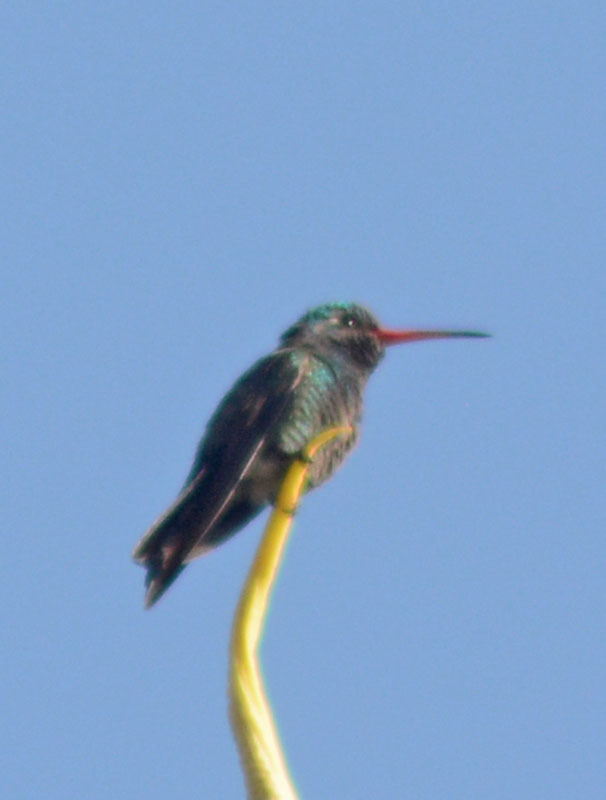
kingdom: Animalia
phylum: Chordata
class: Aves
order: Apodiformes
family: Trochilidae
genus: Cynanthus
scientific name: Cynanthus latirostris
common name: Broad-billed hummingbird
